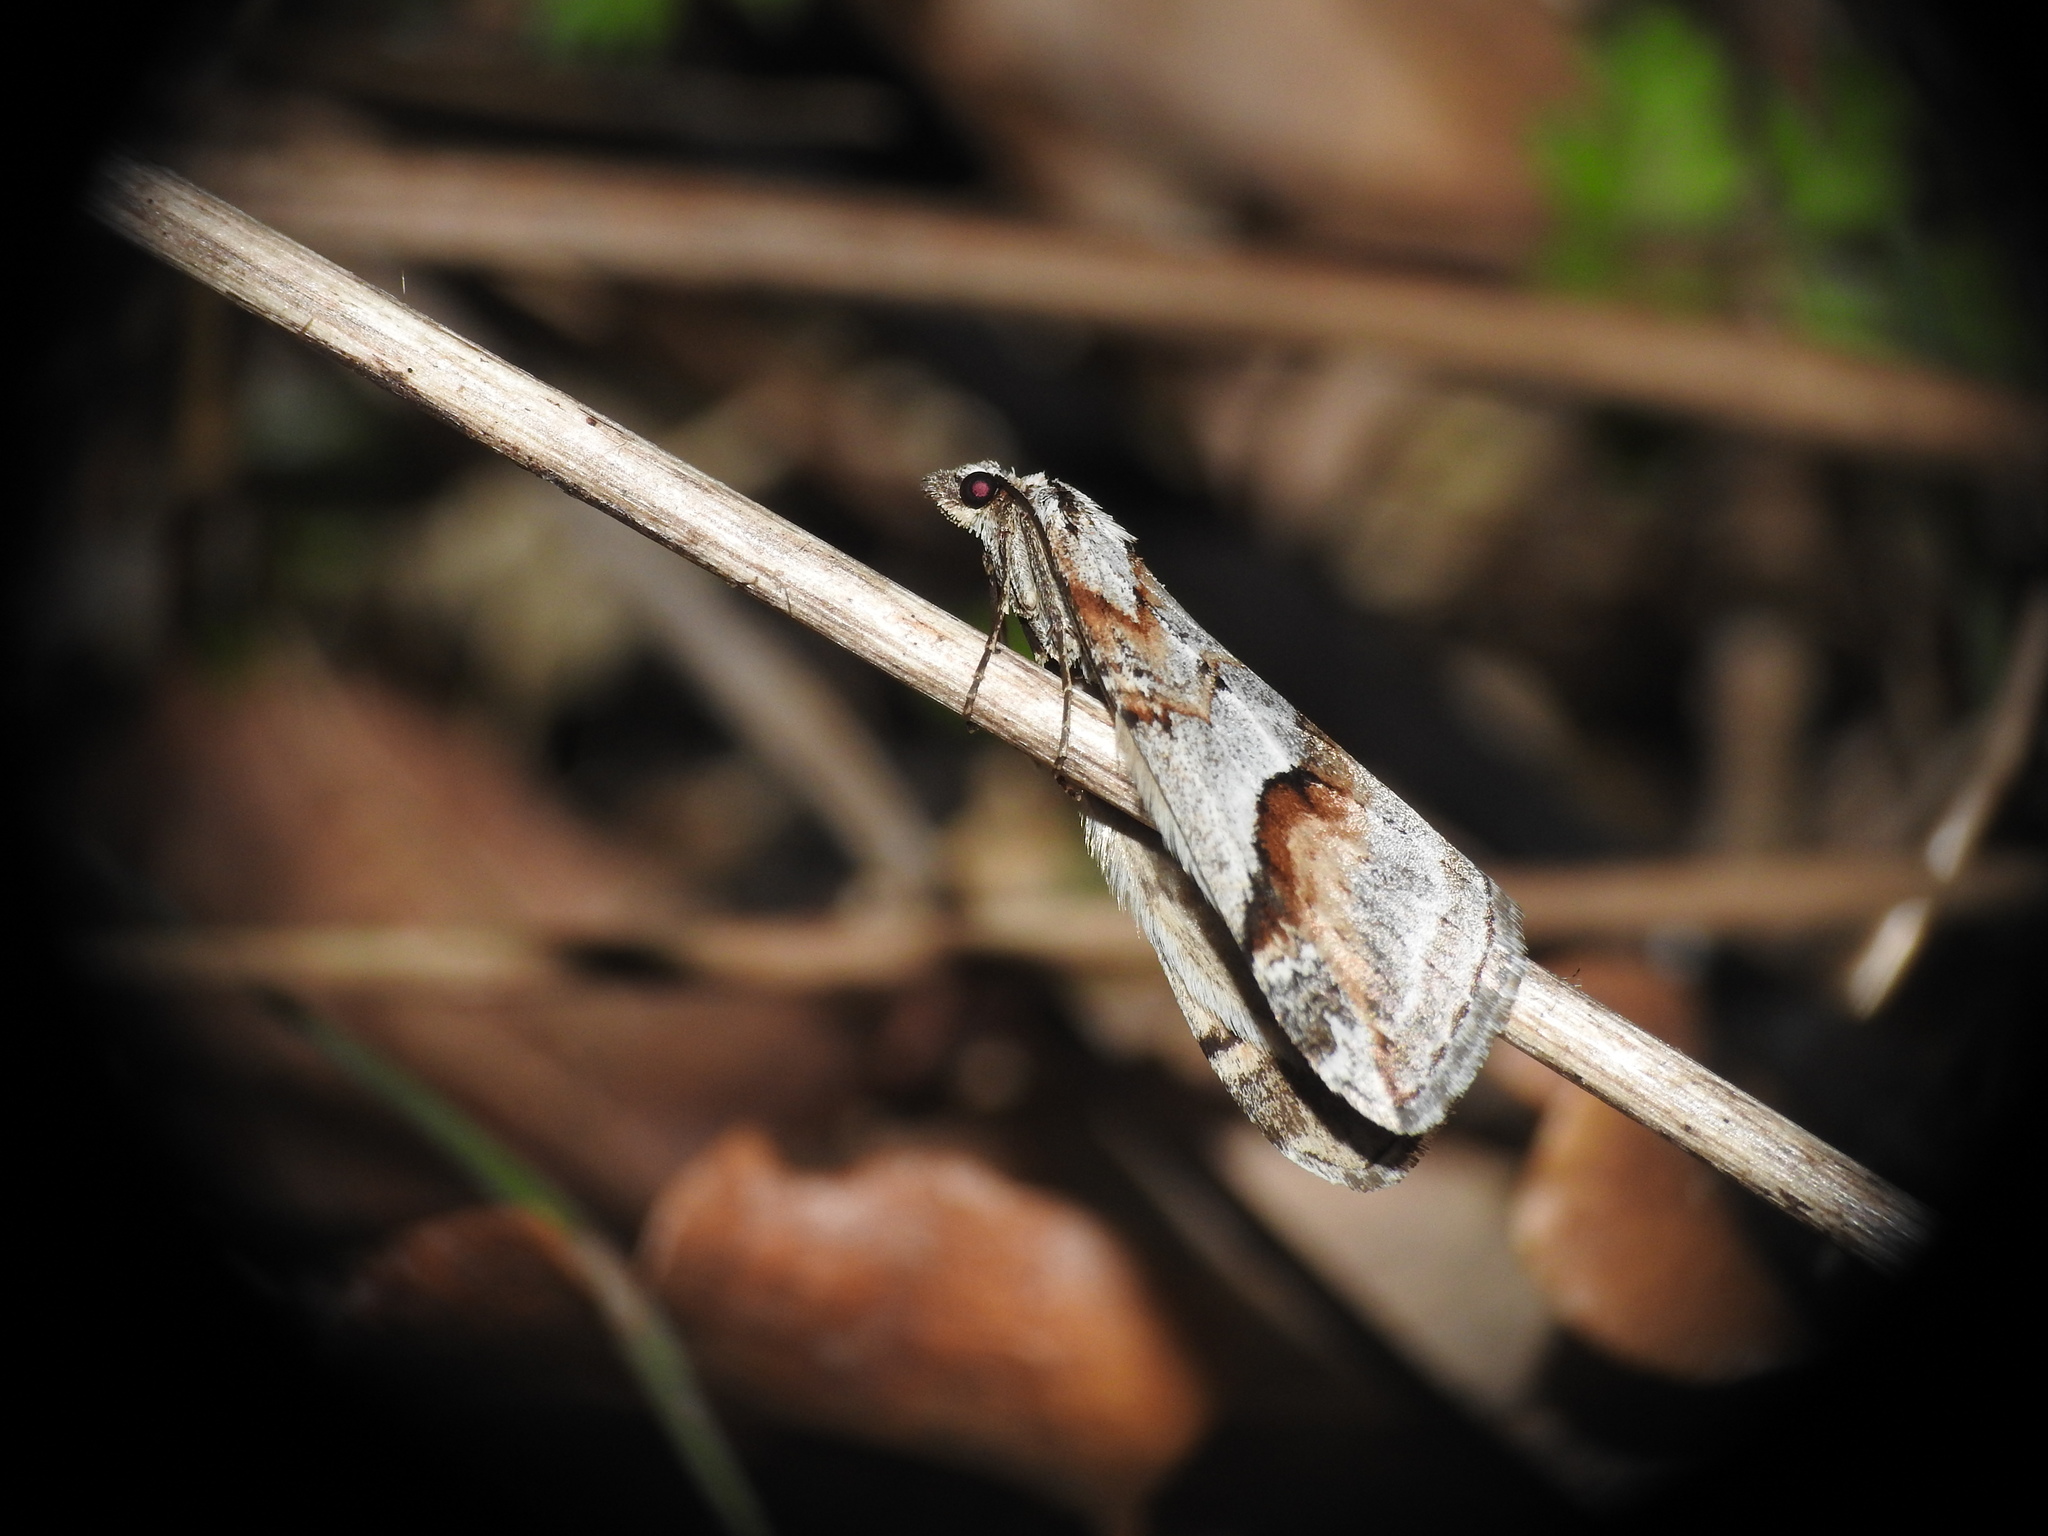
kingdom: Animalia
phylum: Arthropoda
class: Insecta
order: Lepidoptera
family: Geometridae
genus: Chesias
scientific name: Chesias rufata
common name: Broom-tip
